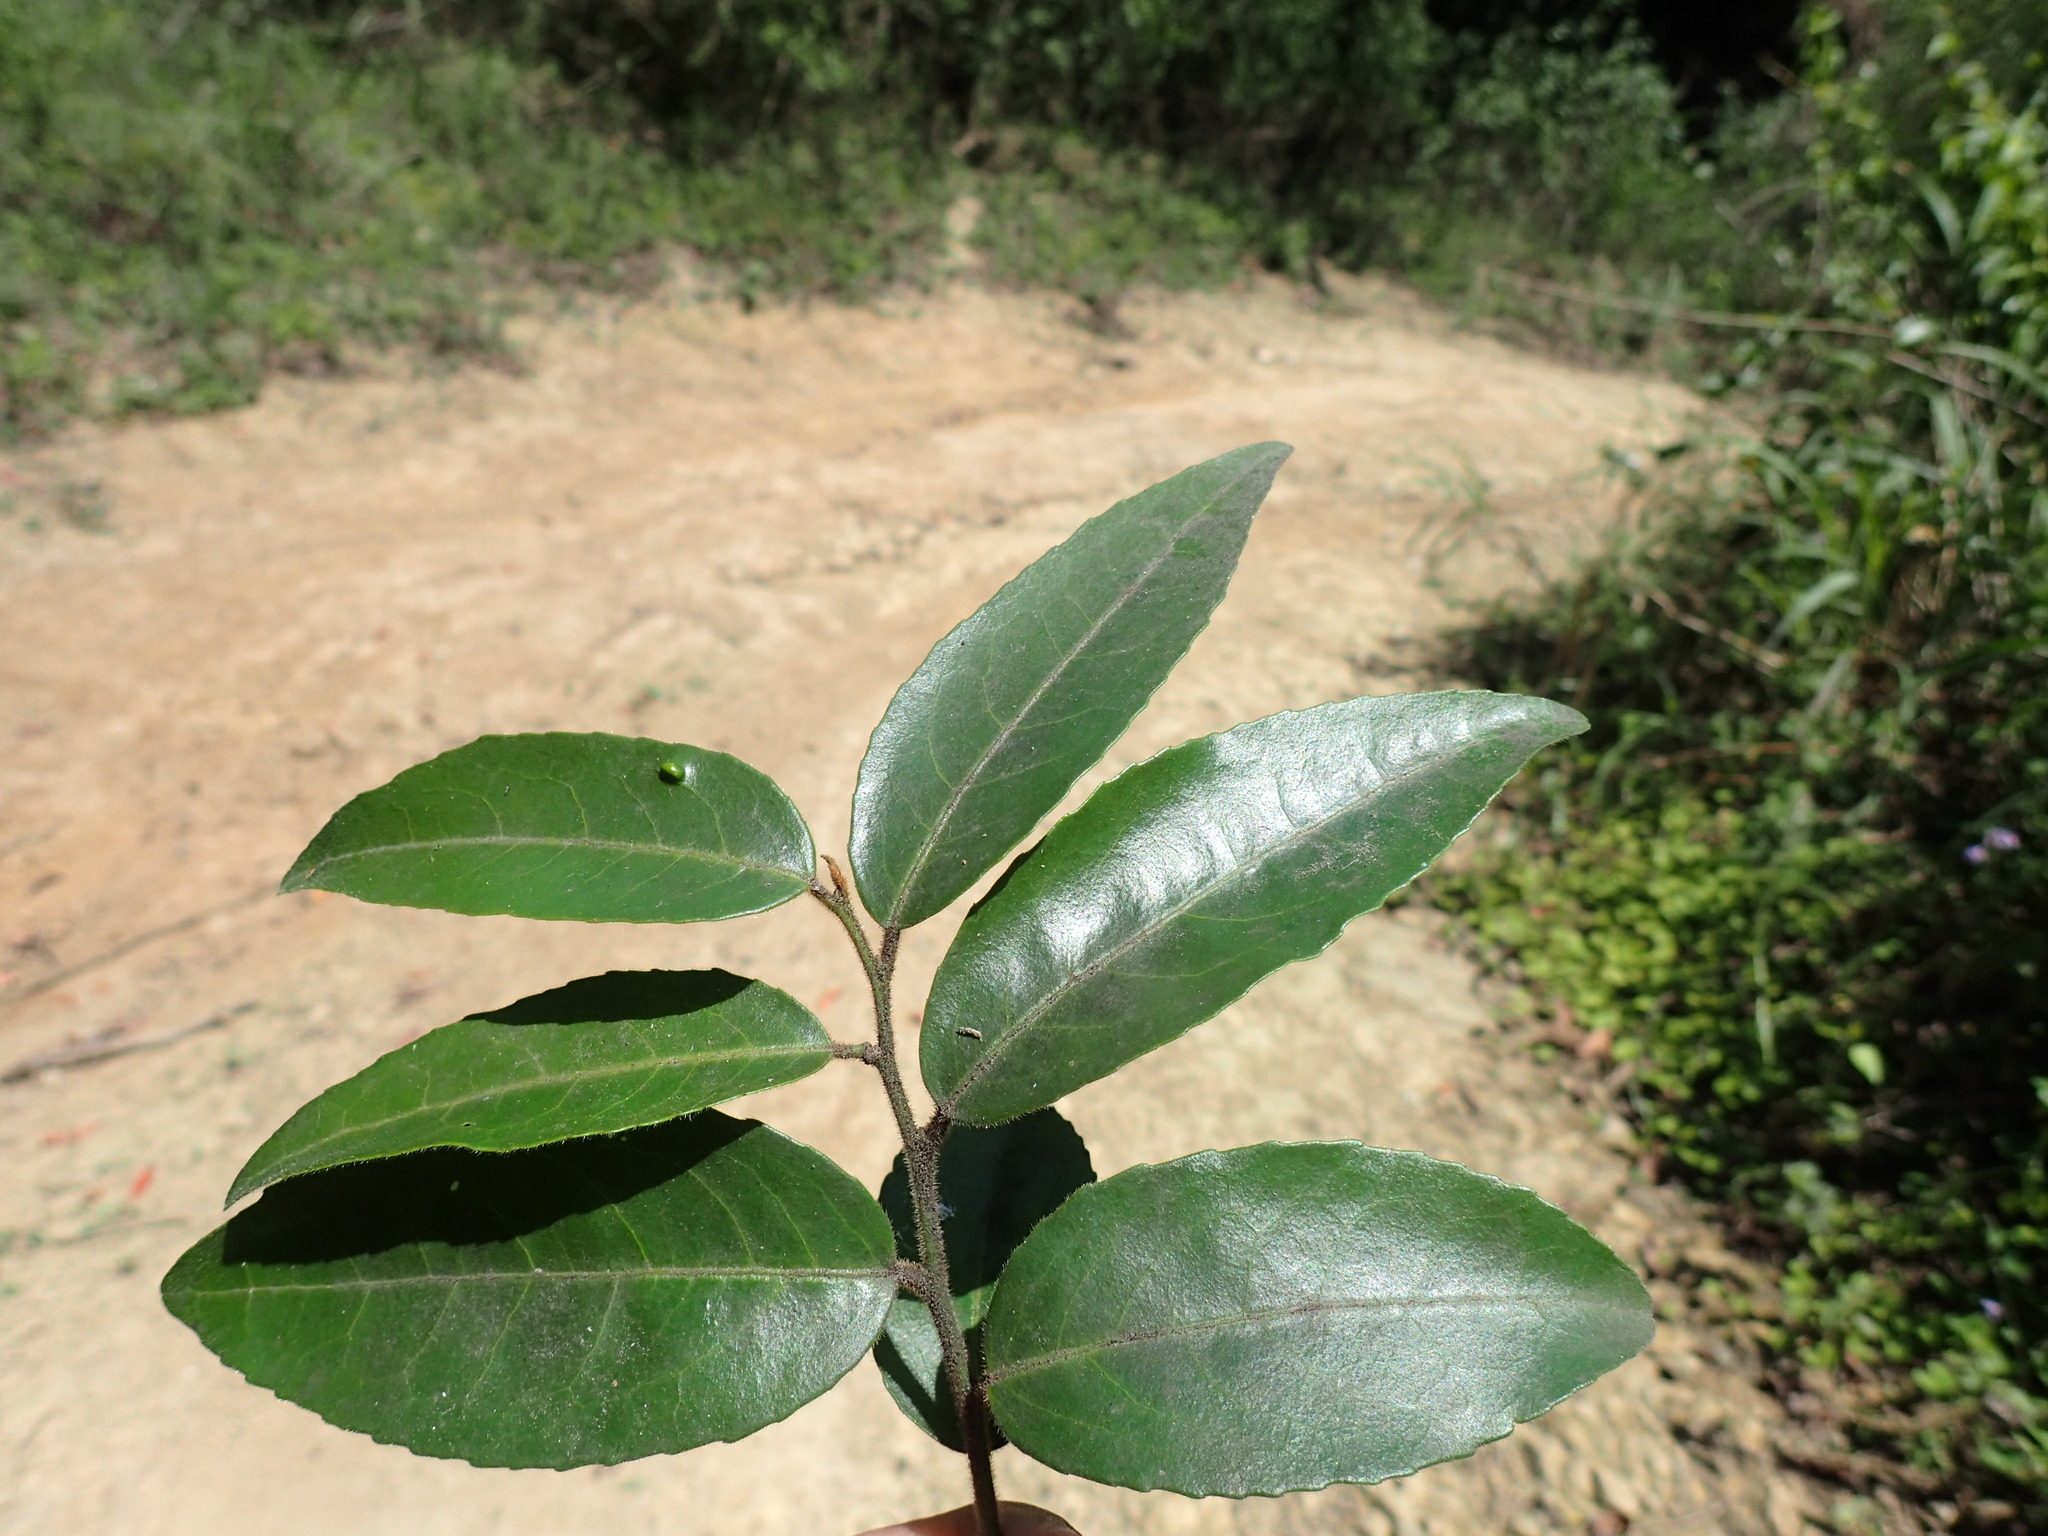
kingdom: Plantae
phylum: Tracheophyta
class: Magnoliopsida
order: Celastrales
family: Celastraceae
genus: Gymnosporia
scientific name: Gymnosporia peduncularis
